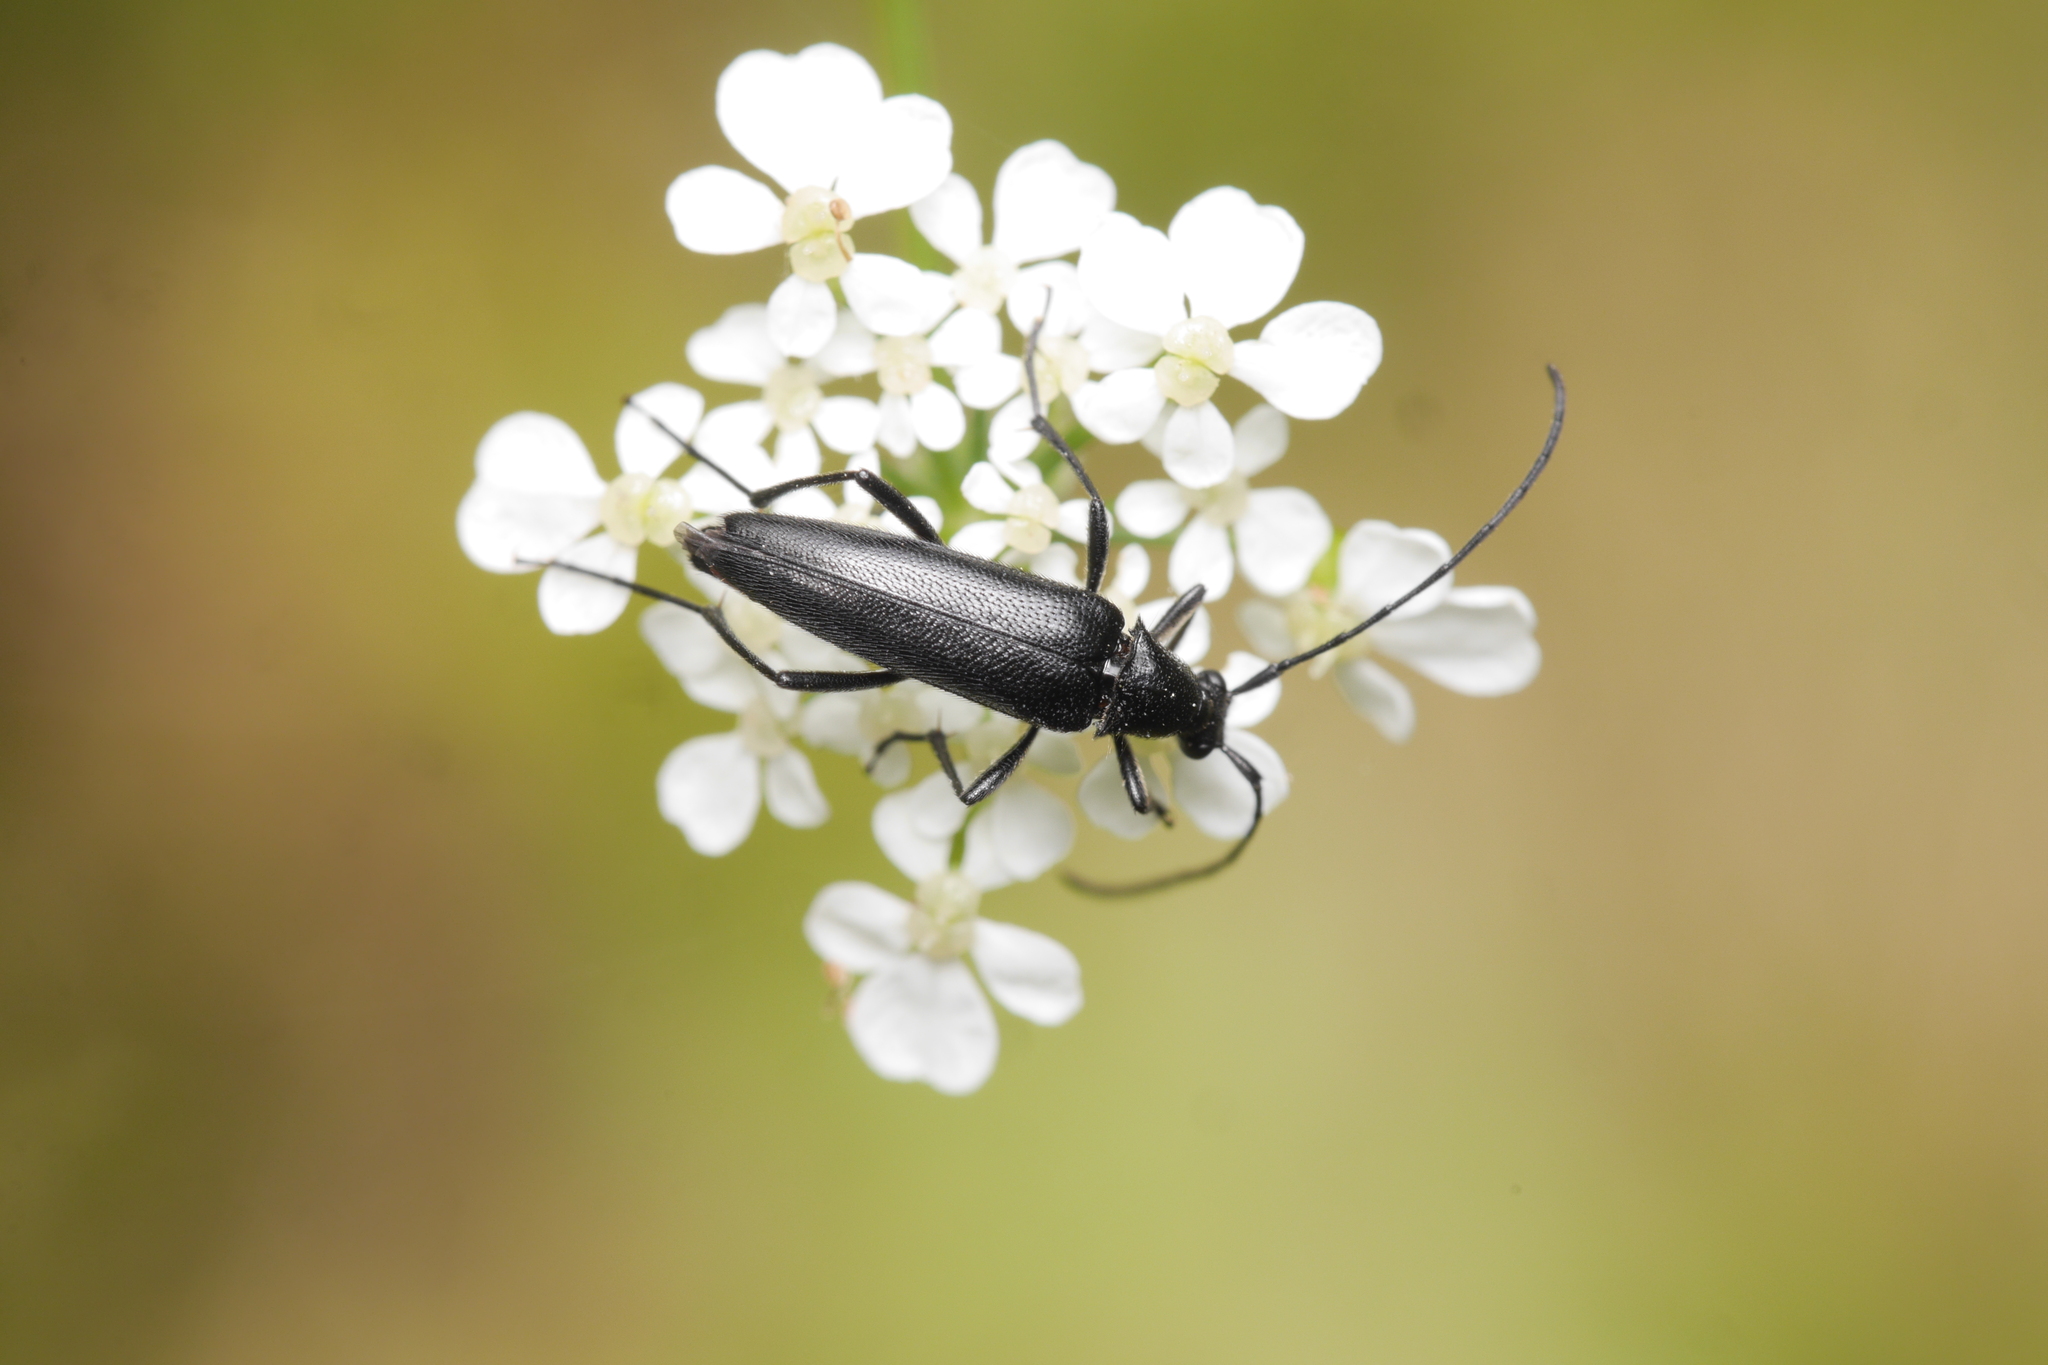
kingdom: Animalia
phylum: Arthropoda
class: Insecta
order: Coleoptera
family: Cerambycidae
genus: Stenurella
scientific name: Stenurella nigra
